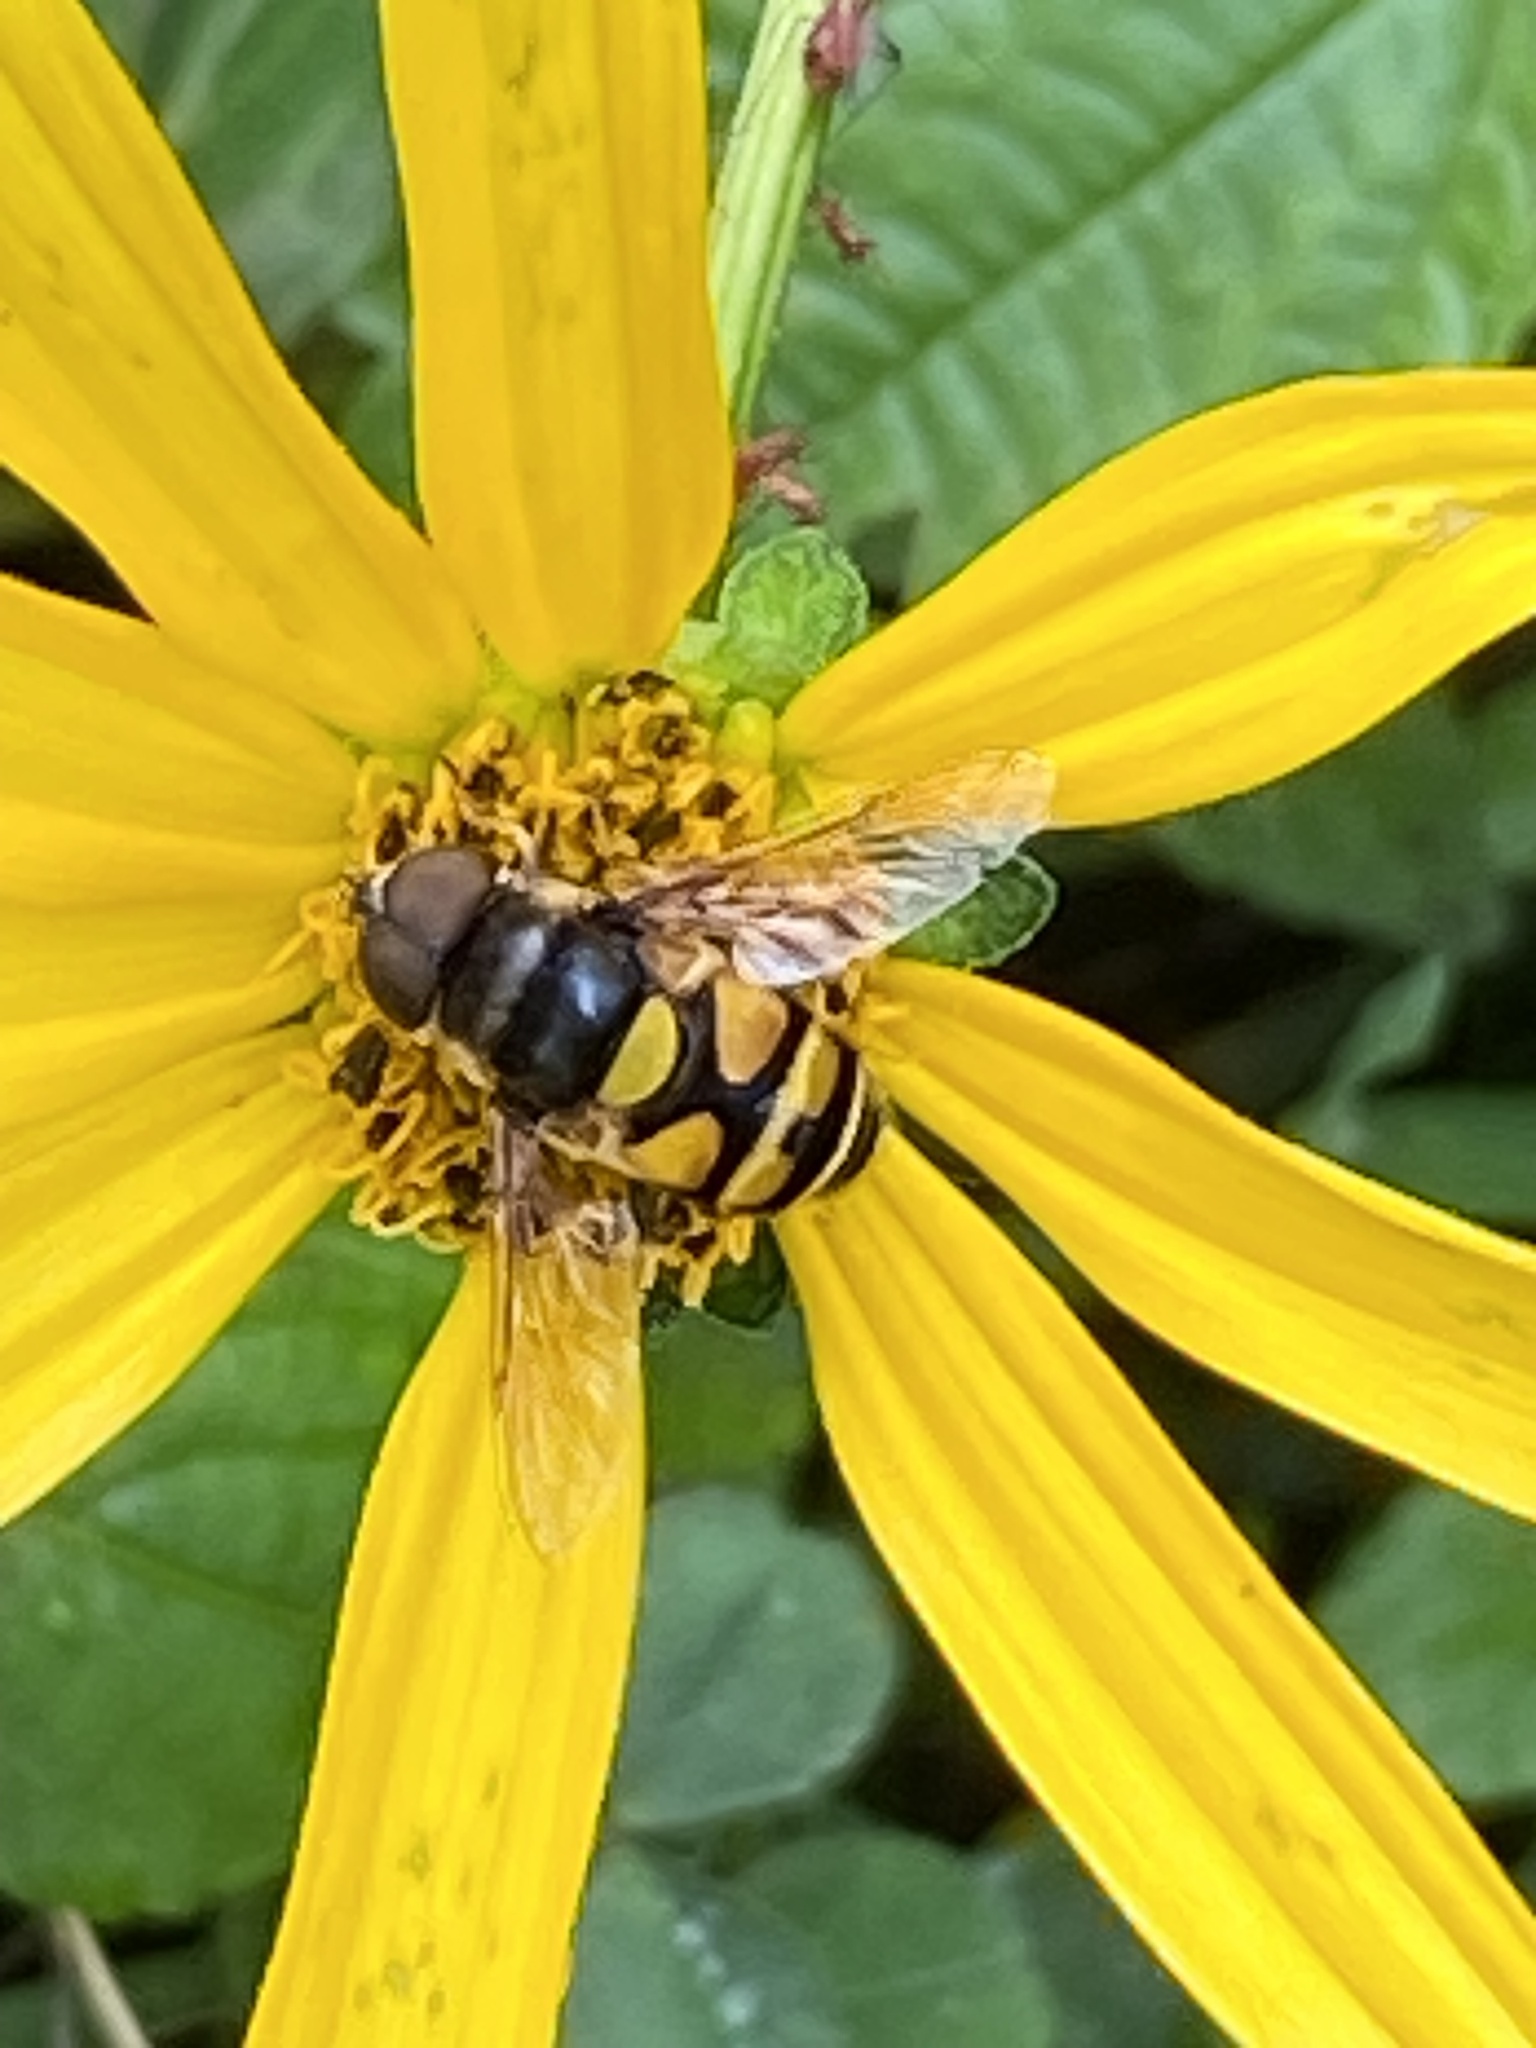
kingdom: Animalia
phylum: Arthropoda
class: Insecta
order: Diptera
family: Syrphidae
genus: Eristalis
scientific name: Eristalis transversa
